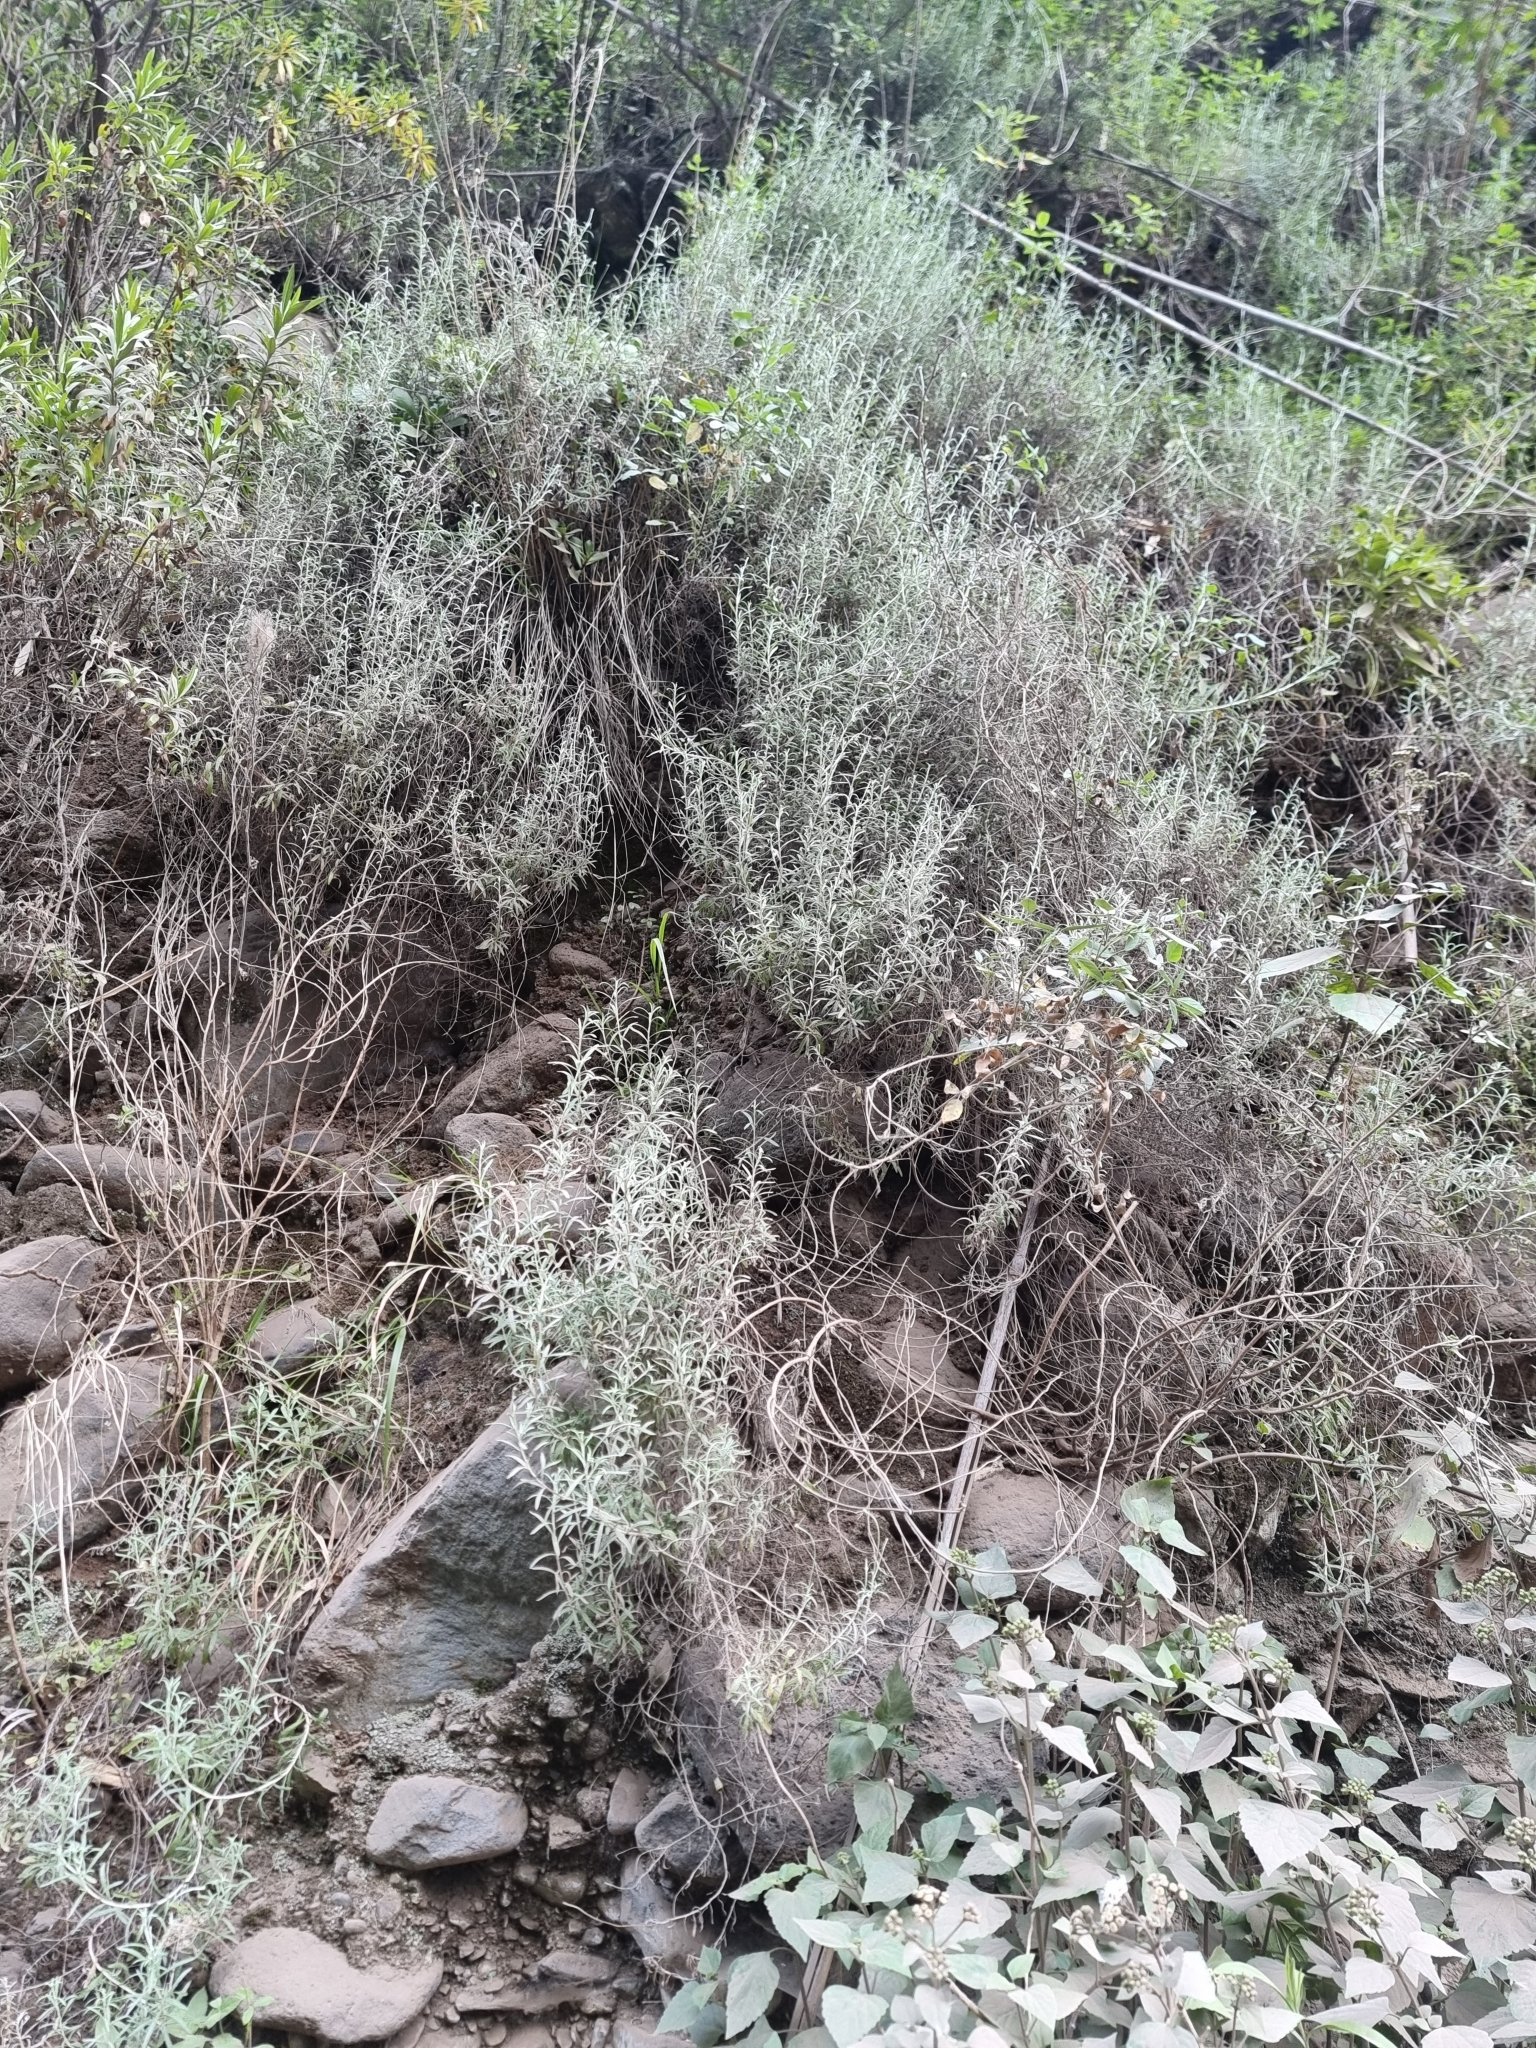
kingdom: Plantae
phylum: Tracheophyta
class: Magnoliopsida
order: Asterales
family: Asteraceae
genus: Phagnalon
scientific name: Phagnalon saxatile
